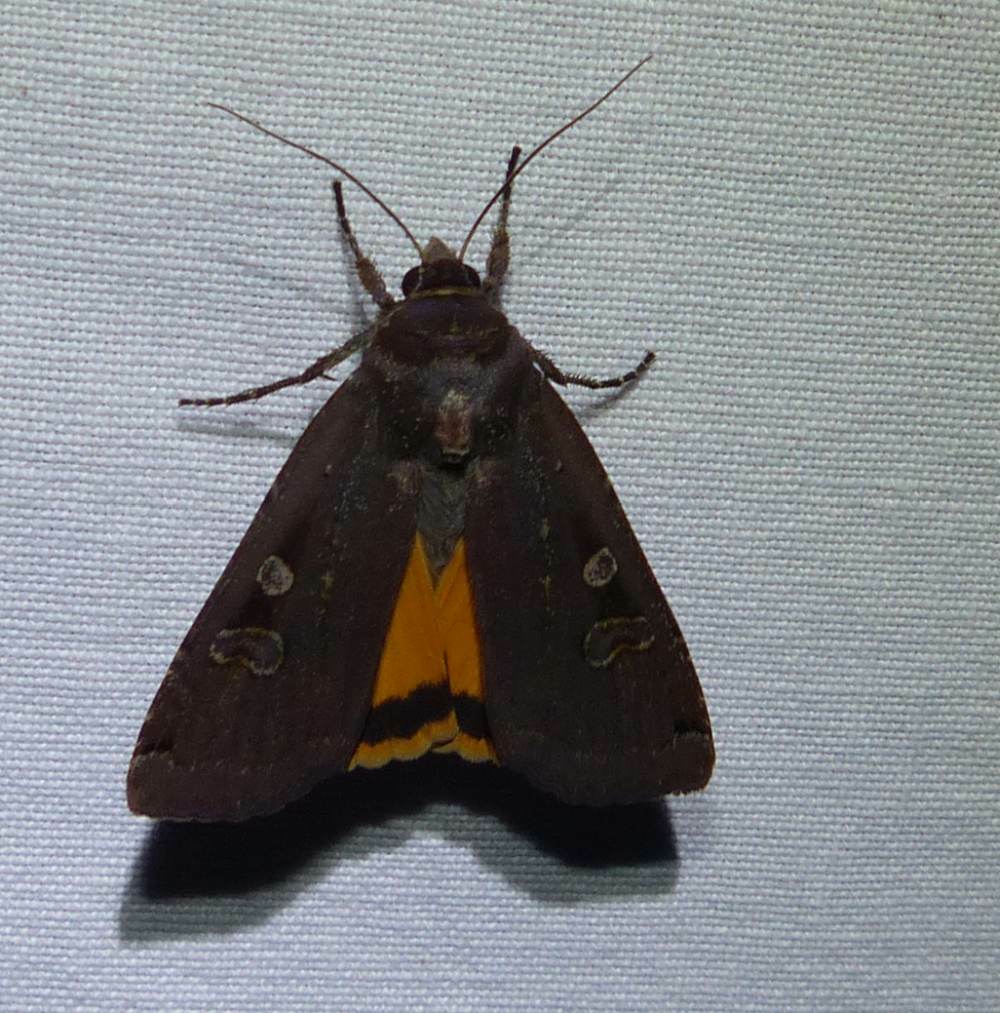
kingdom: Animalia
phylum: Arthropoda
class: Insecta
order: Lepidoptera
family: Noctuidae
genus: Noctua
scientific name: Noctua pronuba
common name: Large yellow underwing
